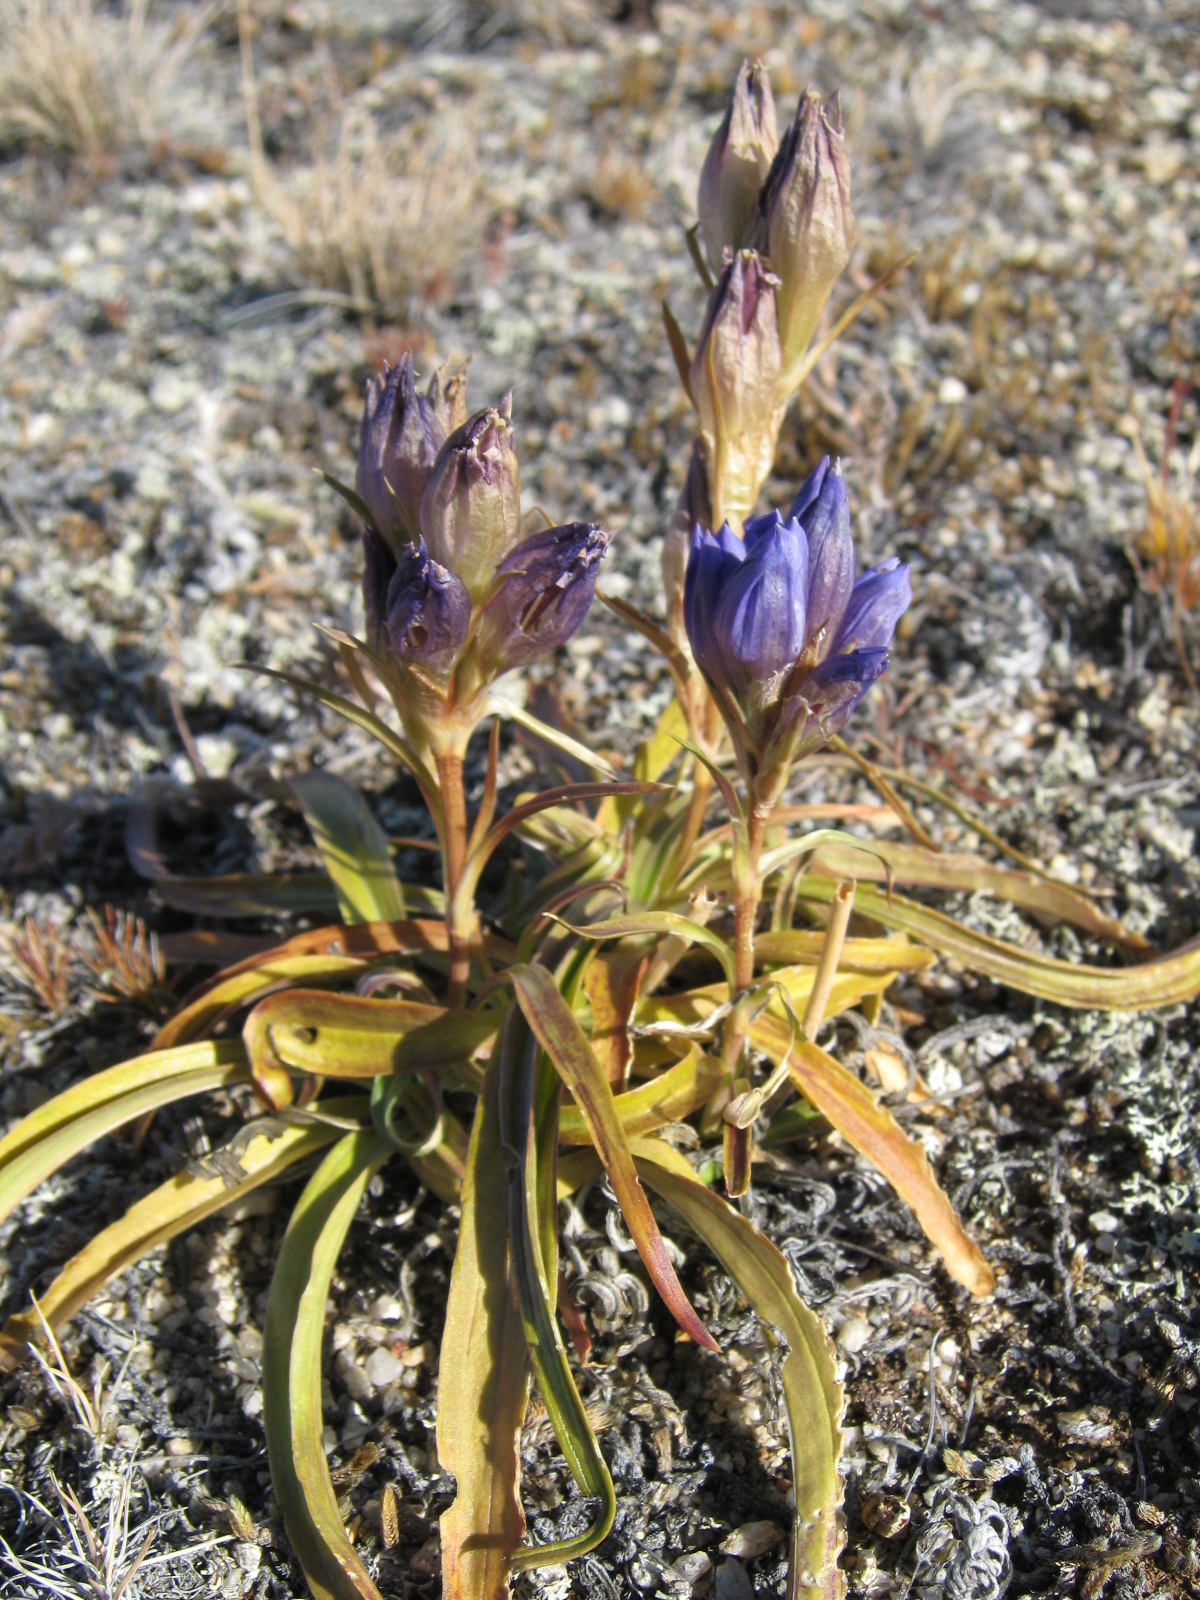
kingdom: Plantae
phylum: Tracheophyta
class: Magnoliopsida
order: Gentianales
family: Gentianaceae
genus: Gentiana
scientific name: Gentiana decumbens
